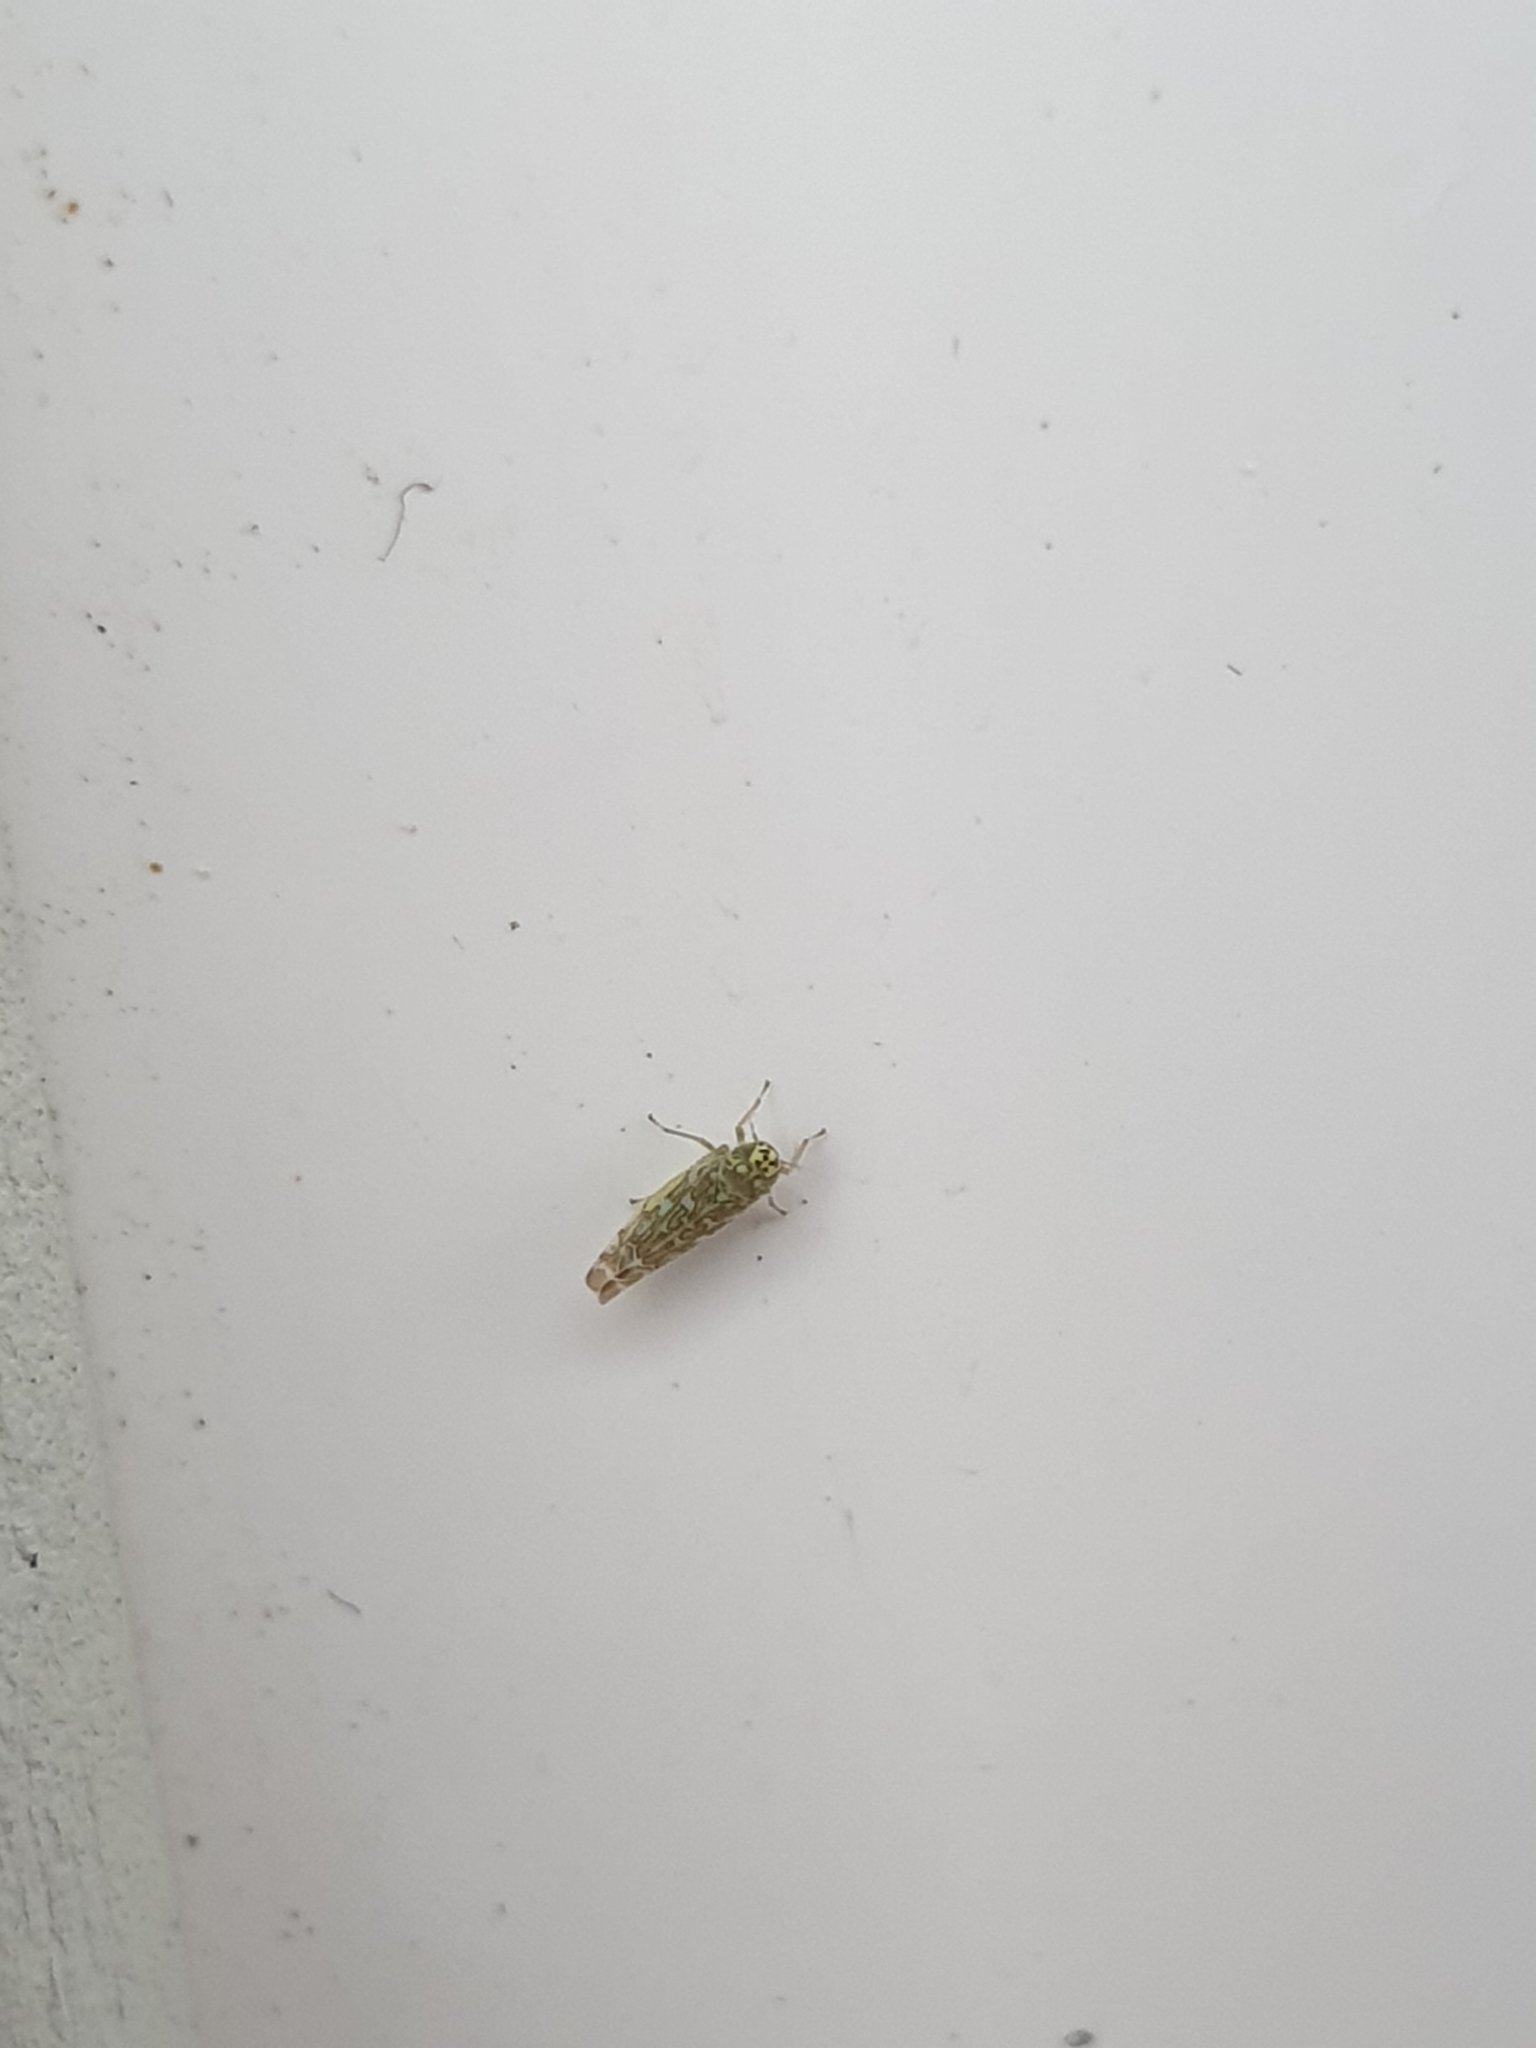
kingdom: Animalia
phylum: Arthropoda
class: Insecta
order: Hemiptera
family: Cicadellidae
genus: Eupteryx
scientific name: Eupteryx decemnotata
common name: Ligurian leafhopper
